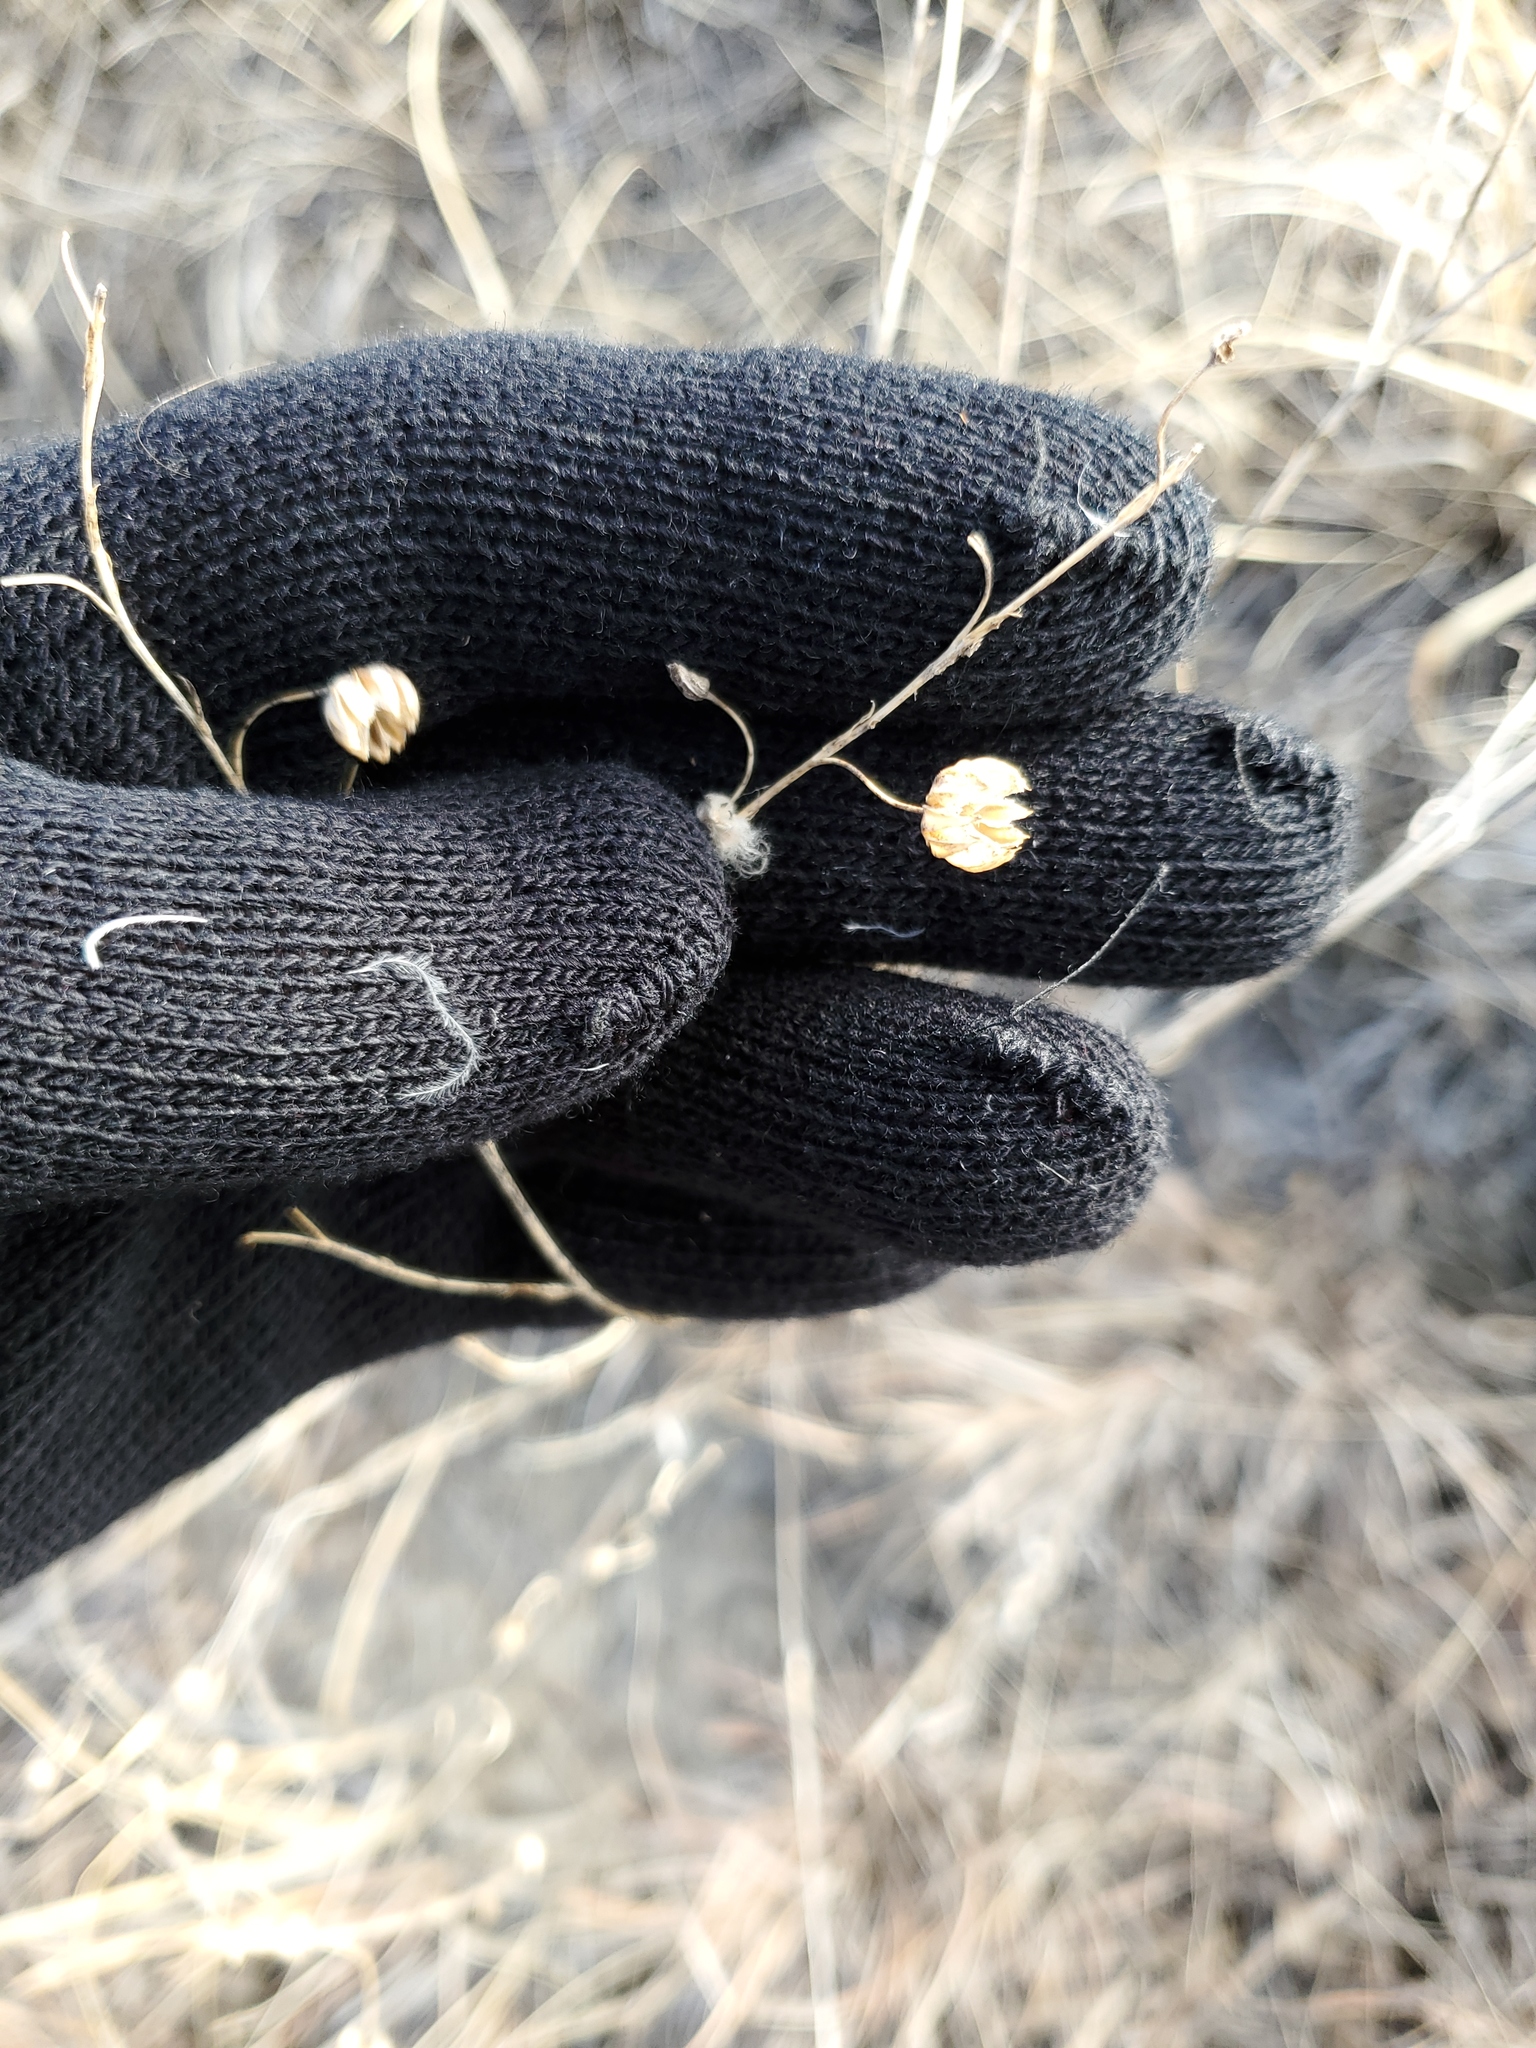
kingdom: Plantae
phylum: Tracheophyta
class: Magnoliopsida
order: Malpighiales
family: Linaceae
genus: Linum
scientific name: Linum lewisii
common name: Prairie flax
